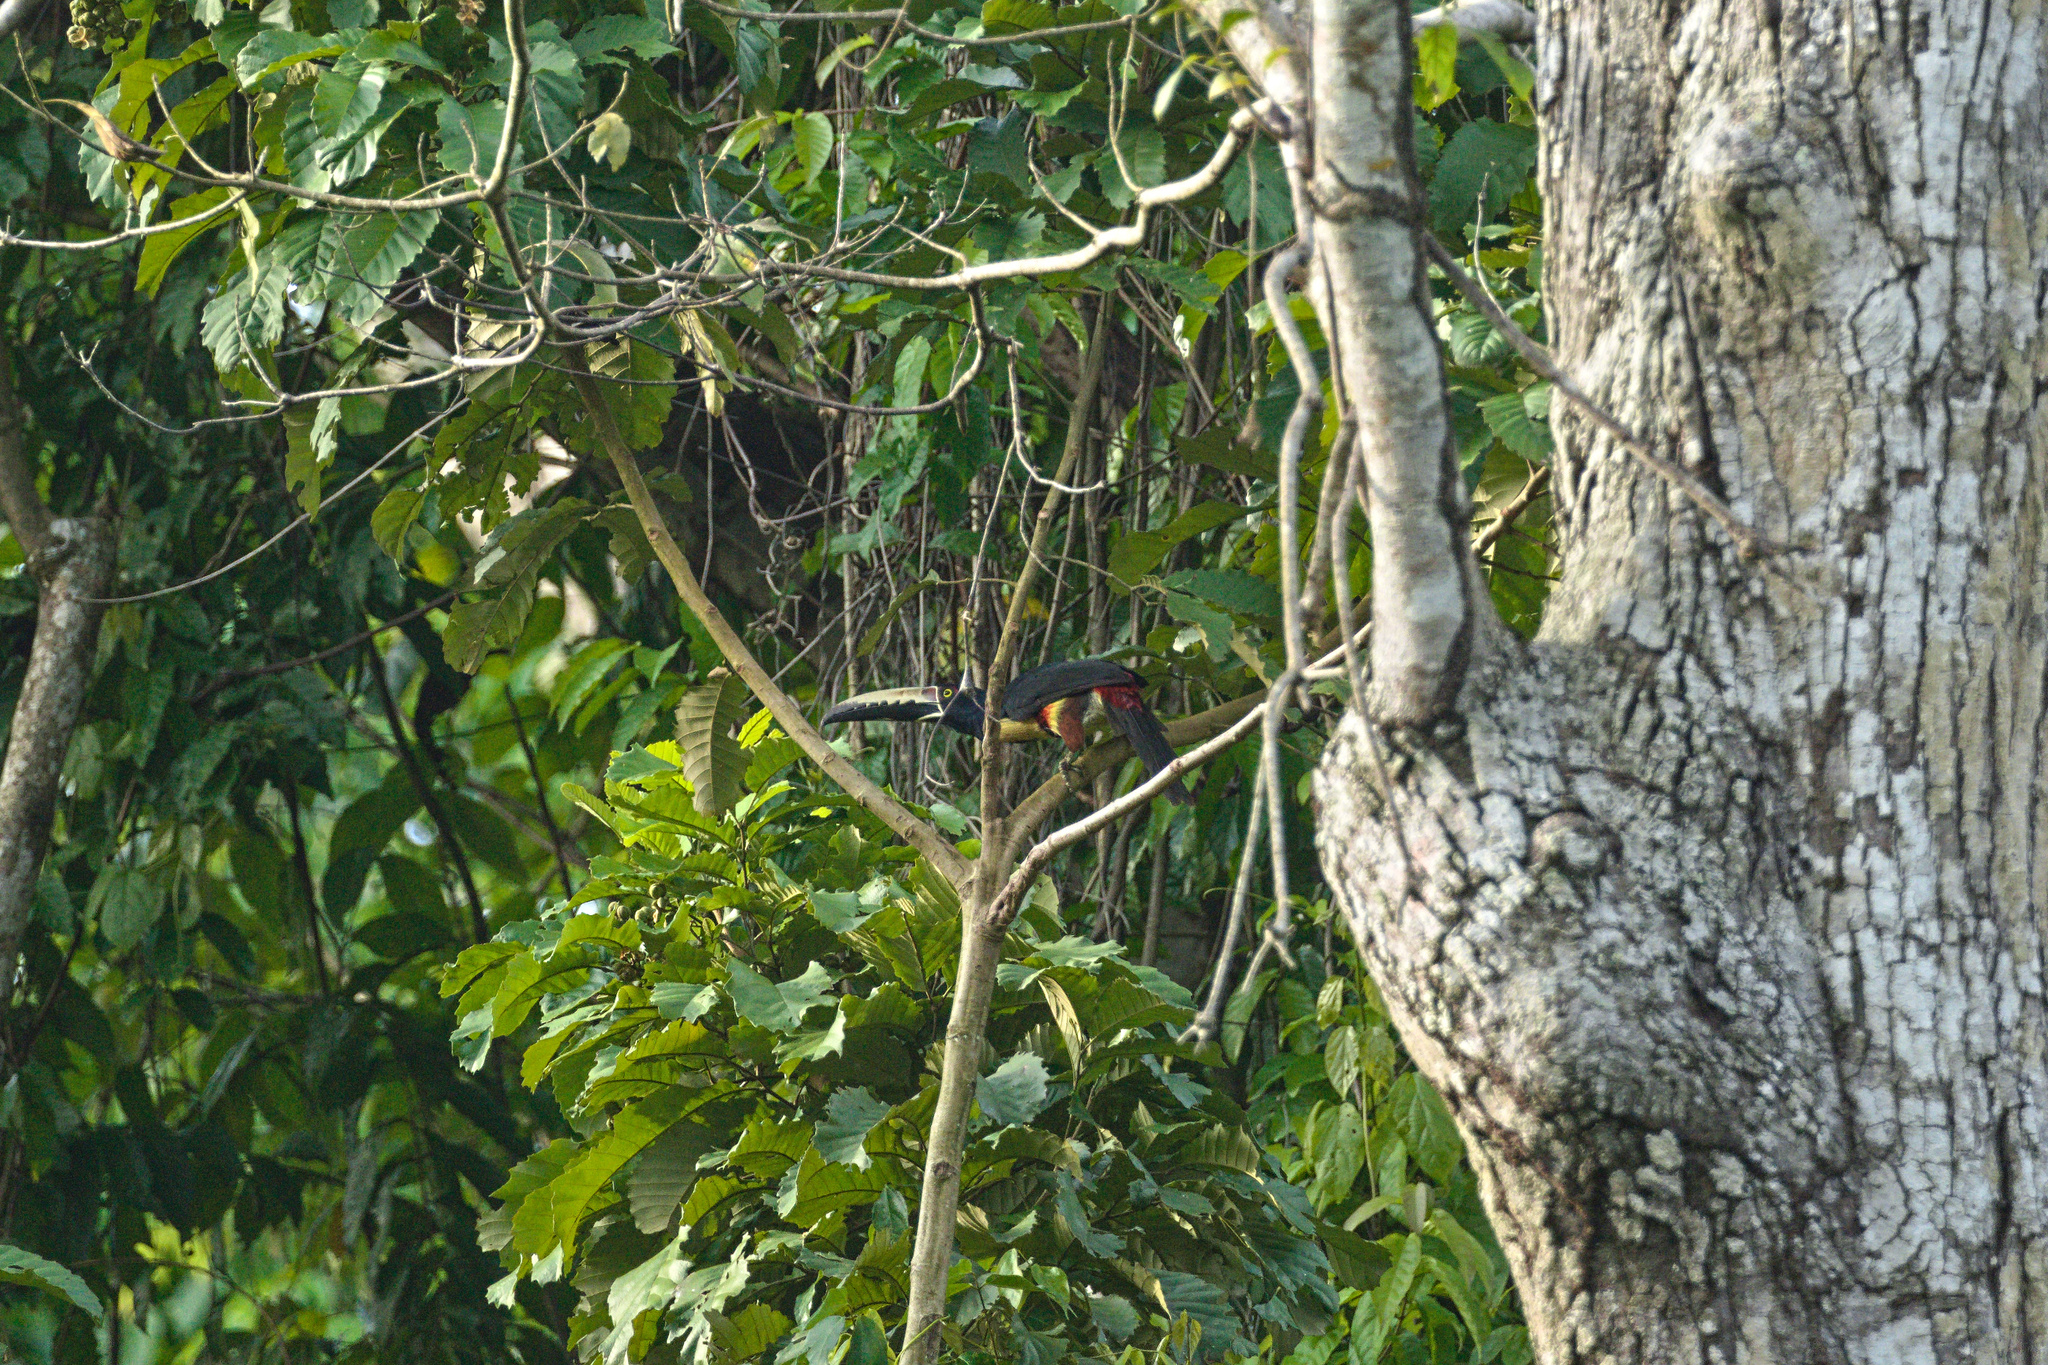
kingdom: Animalia
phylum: Chordata
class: Aves
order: Piciformes
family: Ramphastidae
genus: Pteroglossus
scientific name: Pteroglossus torquatus
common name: Collared aracari
